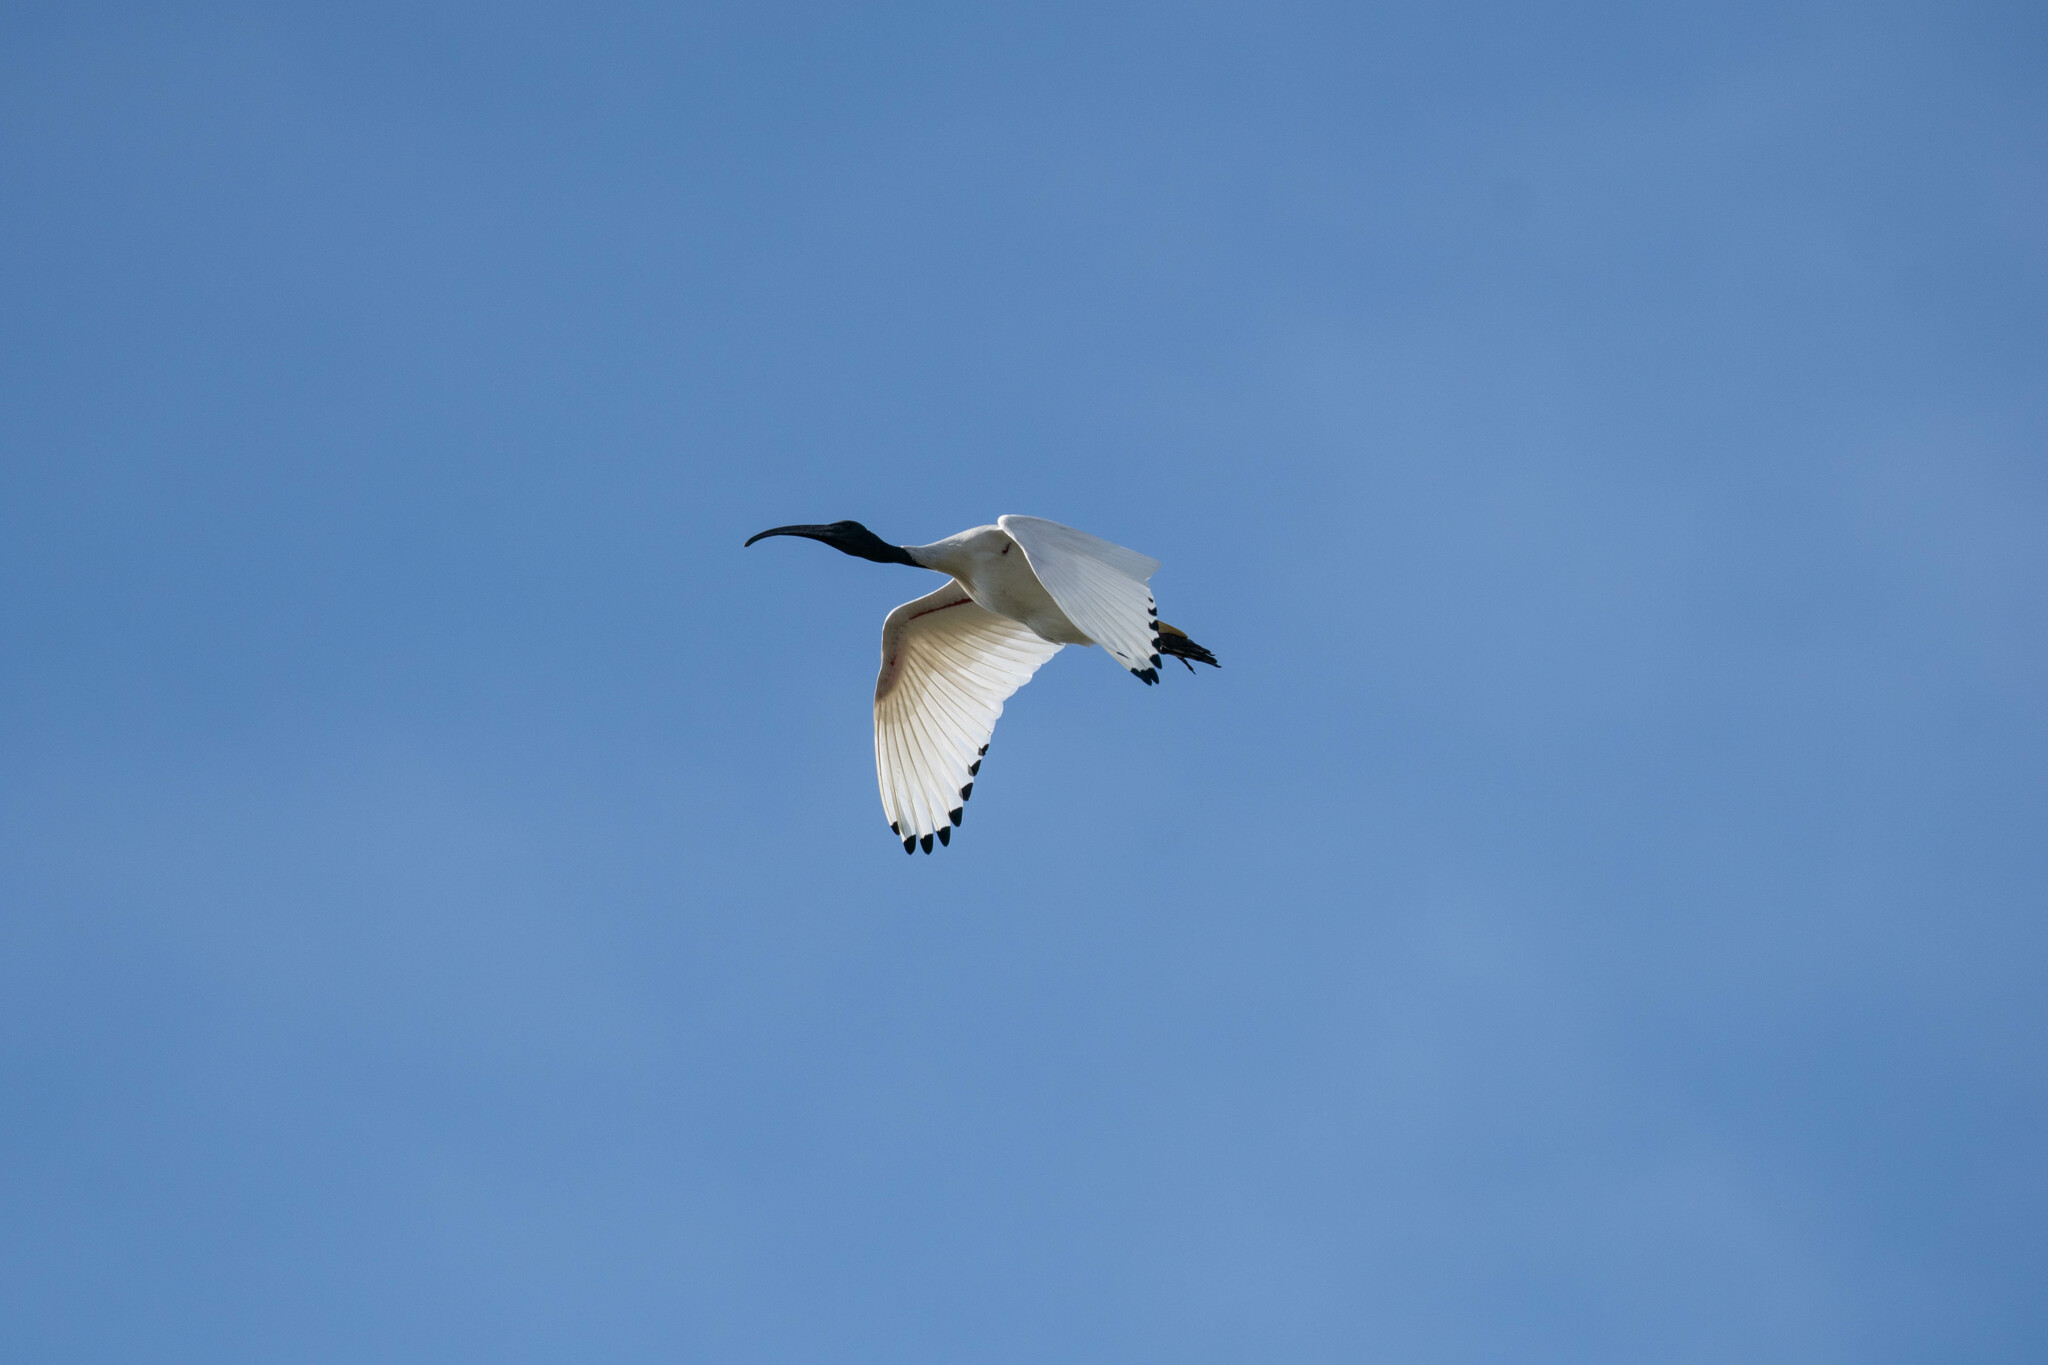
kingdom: Animalia
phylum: Chordata
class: Aves
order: Pelecaniformes
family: Threskiornithidae
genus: Threskiornis
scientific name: Threskiornis molucca
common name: Australian white ibis
